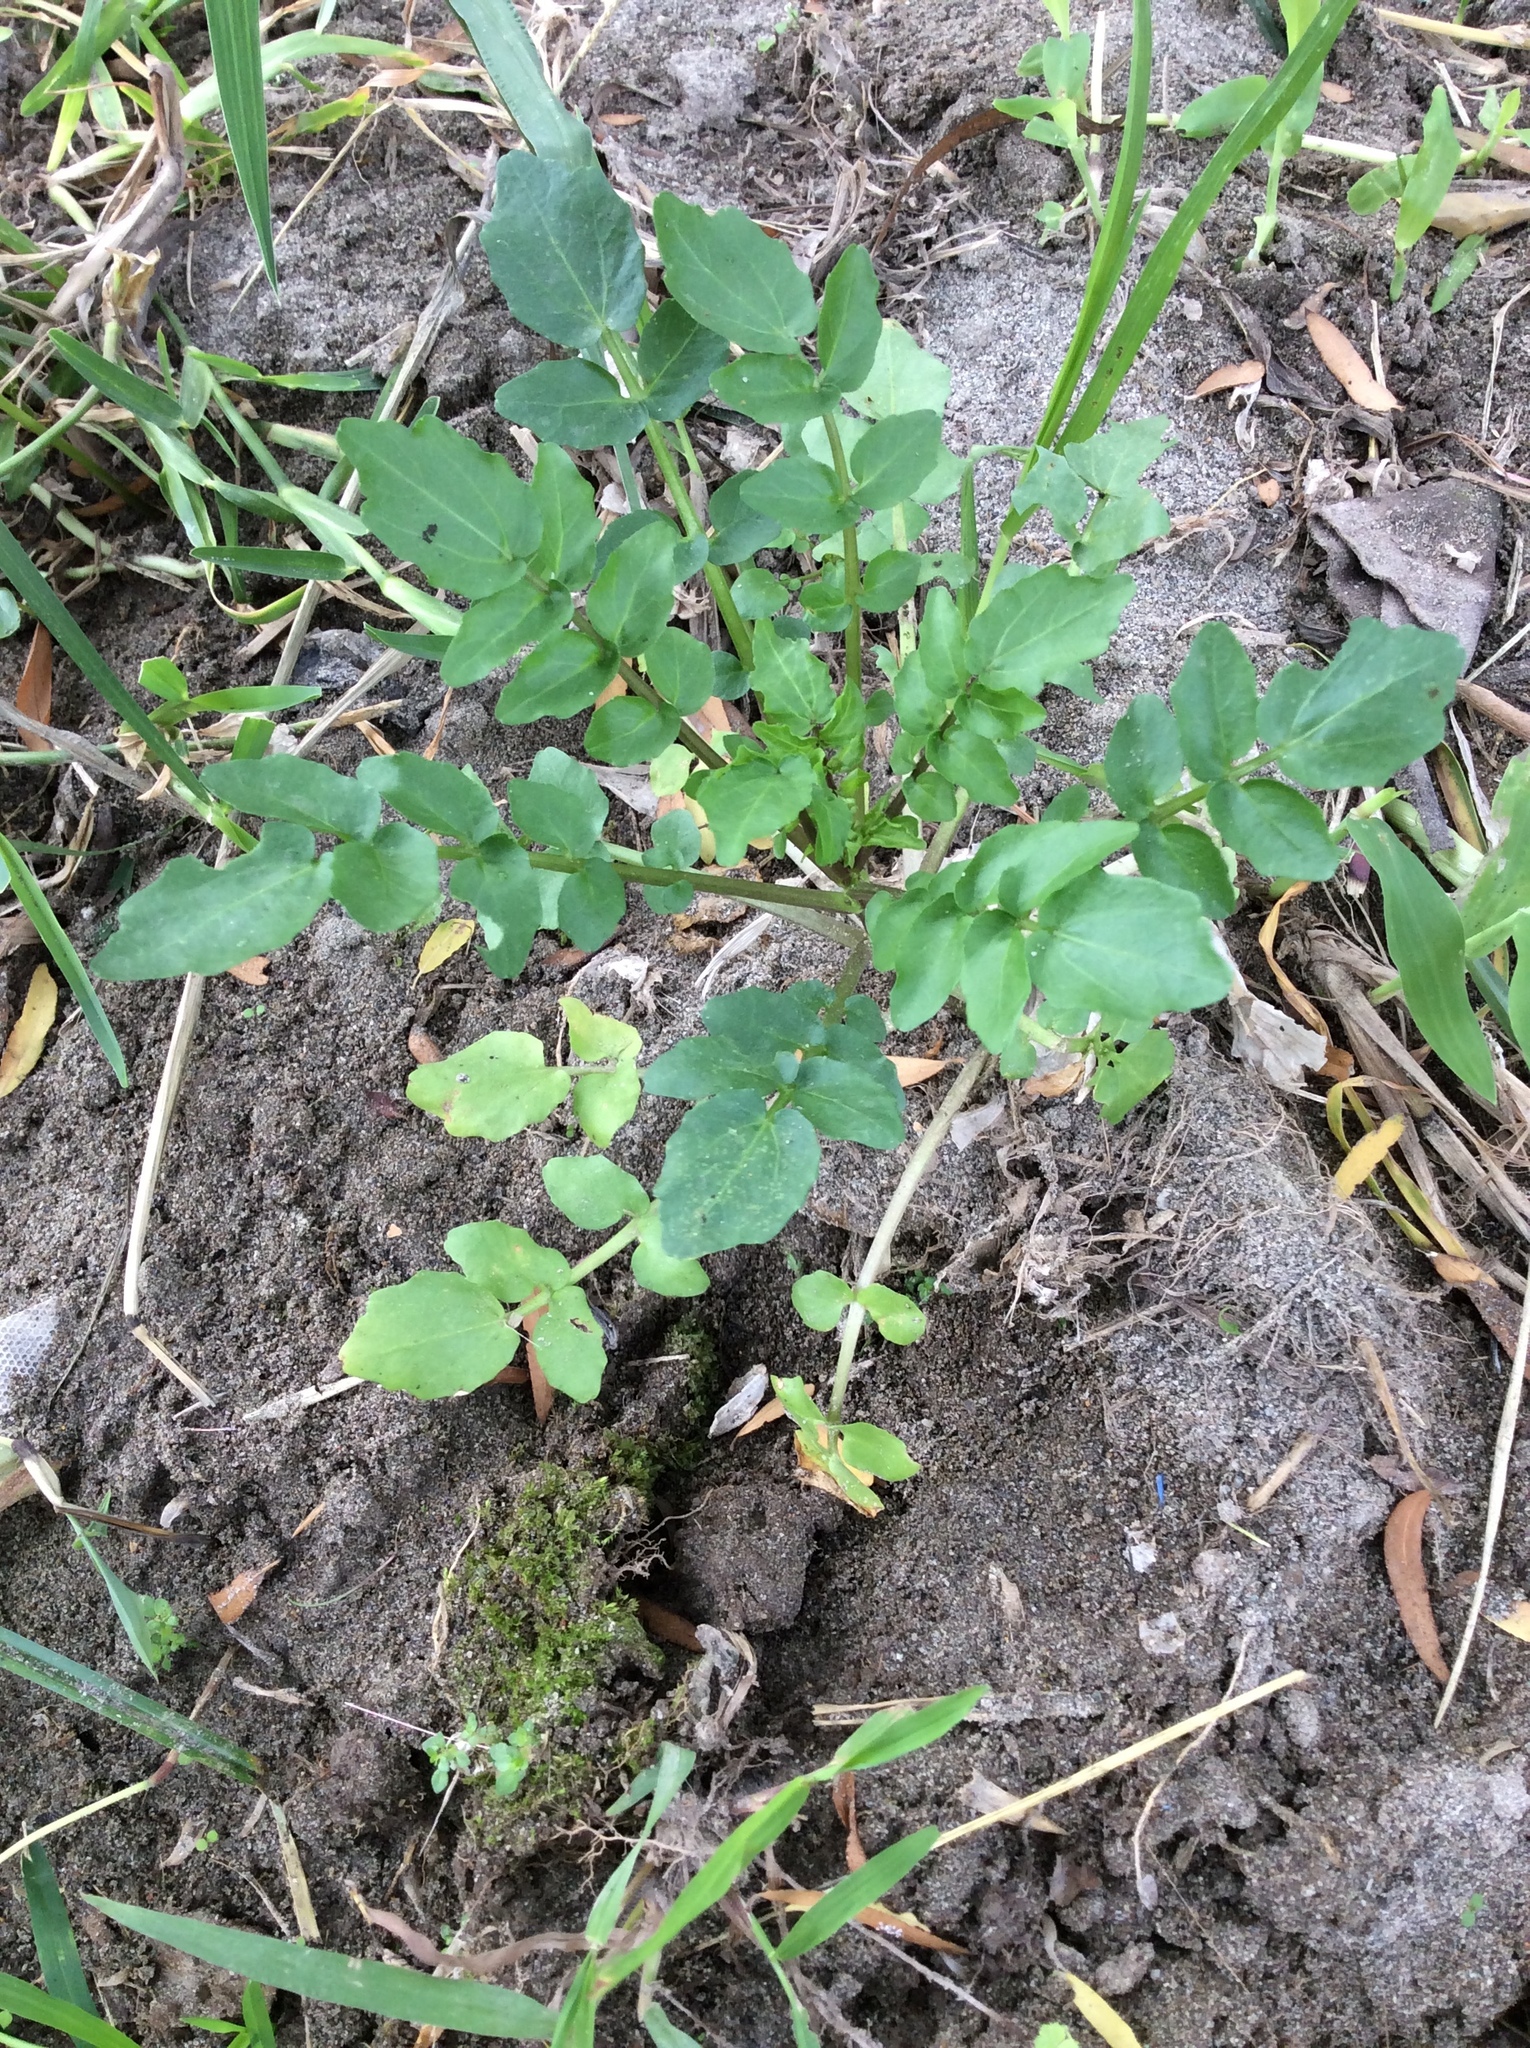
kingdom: Plantae
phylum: Tracheophyta
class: Magnoliopsida
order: Brassicales
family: Brassicaceae
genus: Nasturtium
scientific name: Nasturtium officinale
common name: Watercress
